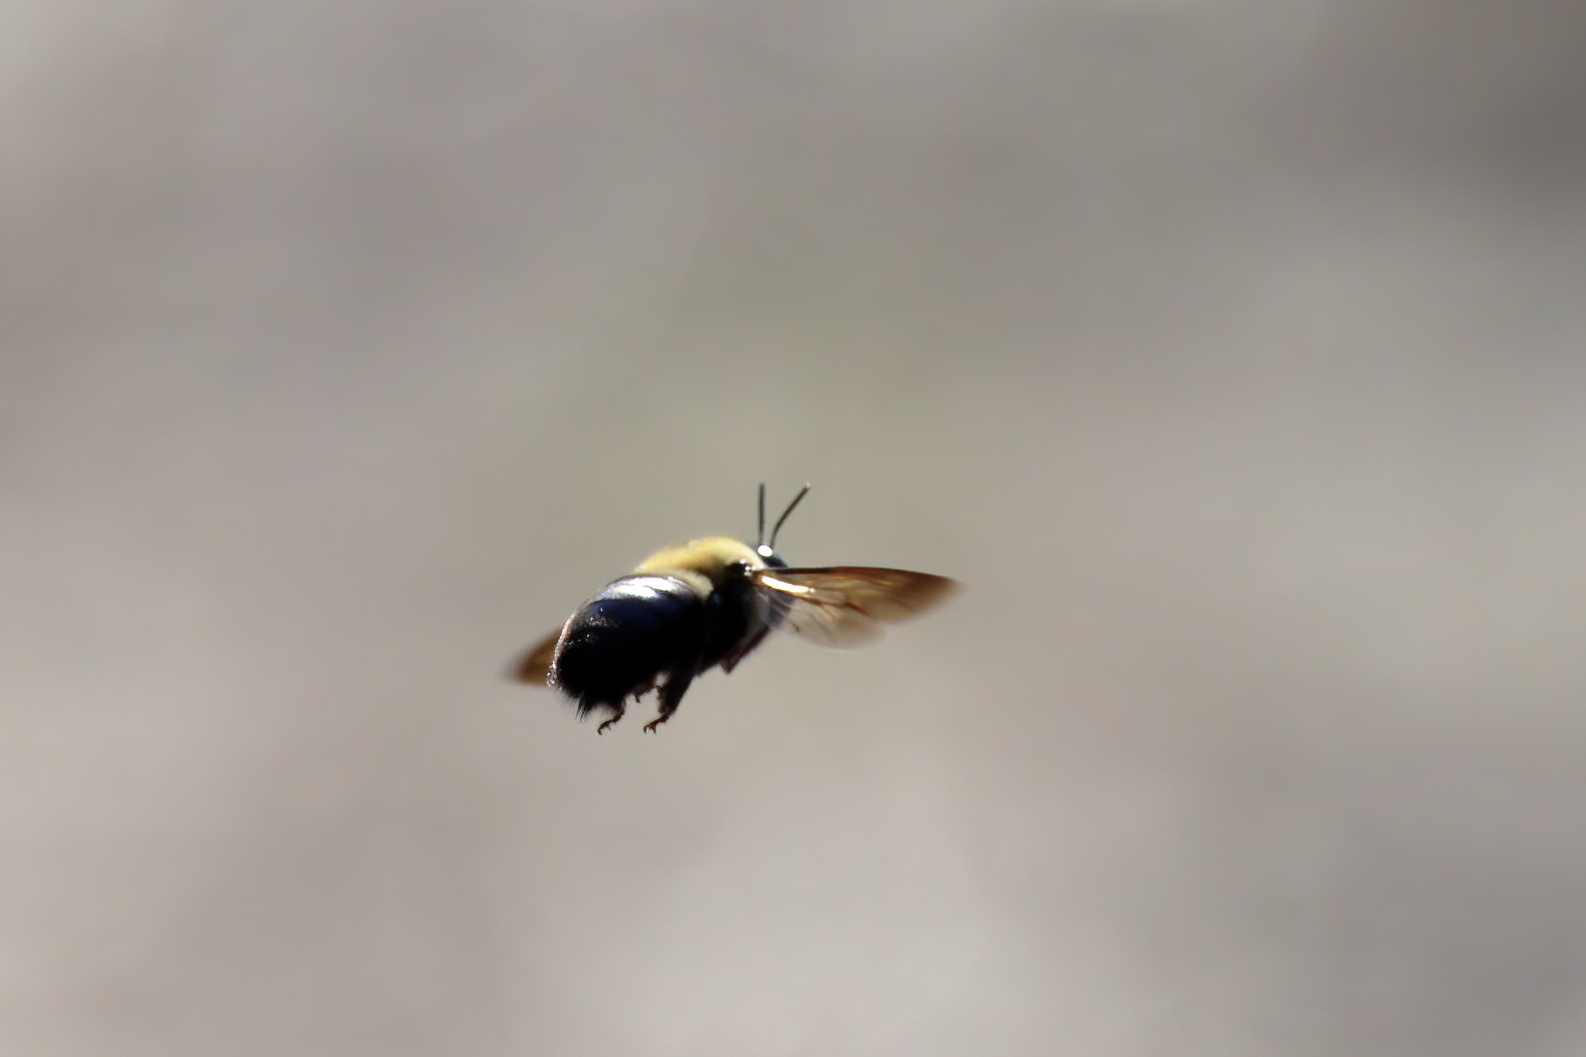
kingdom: Animalia
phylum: Arthropoda
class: Insecta
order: Hymenoptera
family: Apidae
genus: Xylocopa
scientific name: Xylocopa virginica
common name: Carpenter bee
